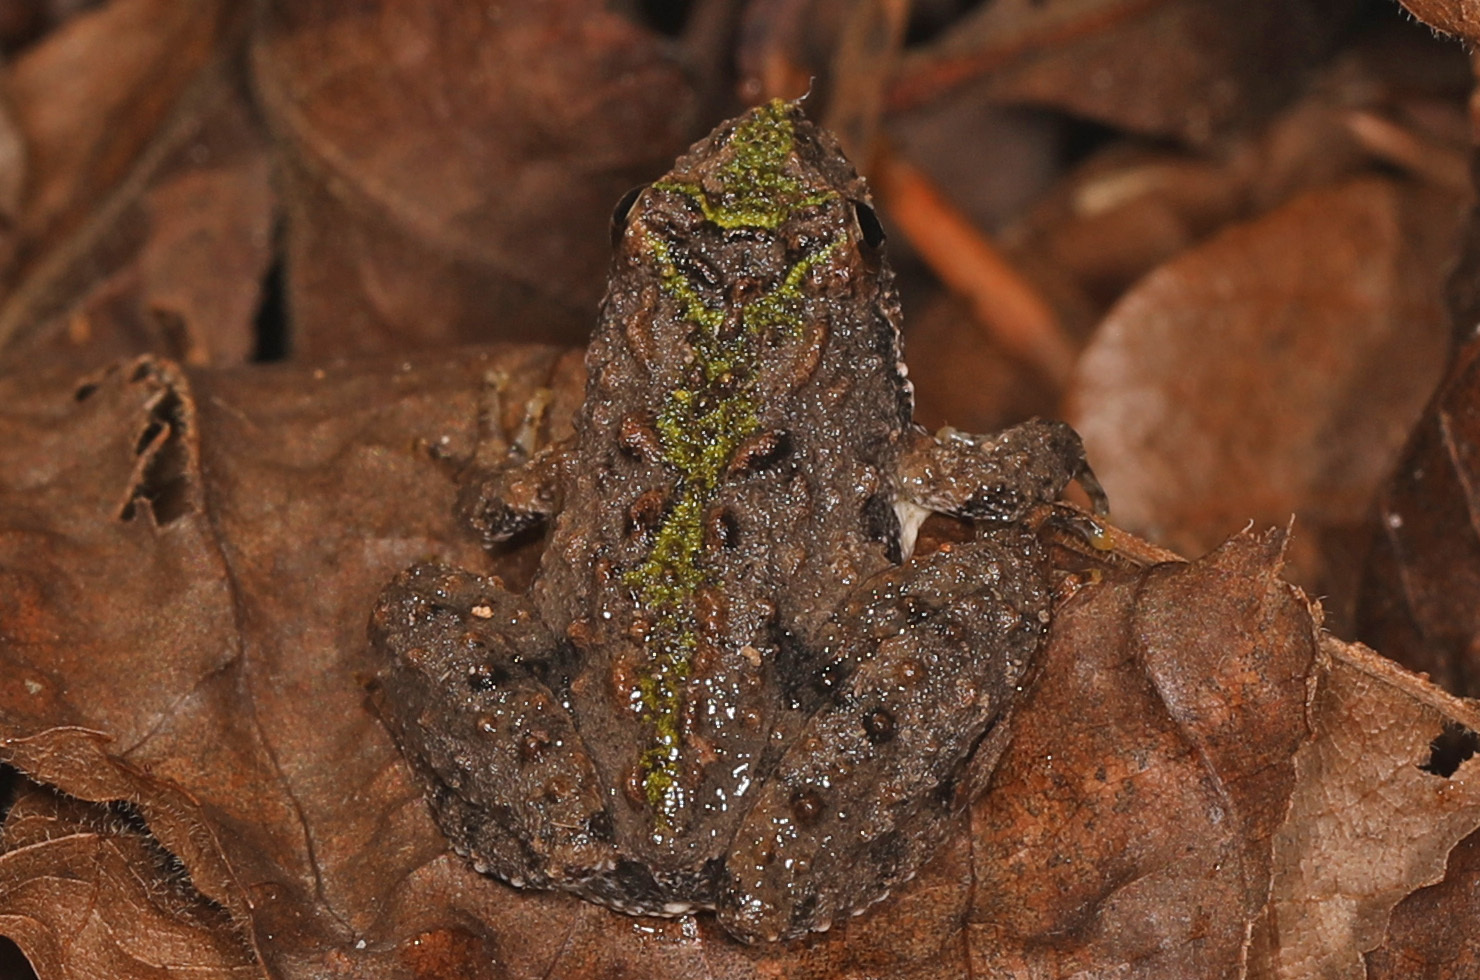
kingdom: Animalia
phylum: Chordata
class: Amphibia
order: Anura
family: Hylidae
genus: Acris
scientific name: Acris crepitans
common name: Northern cricket frog
